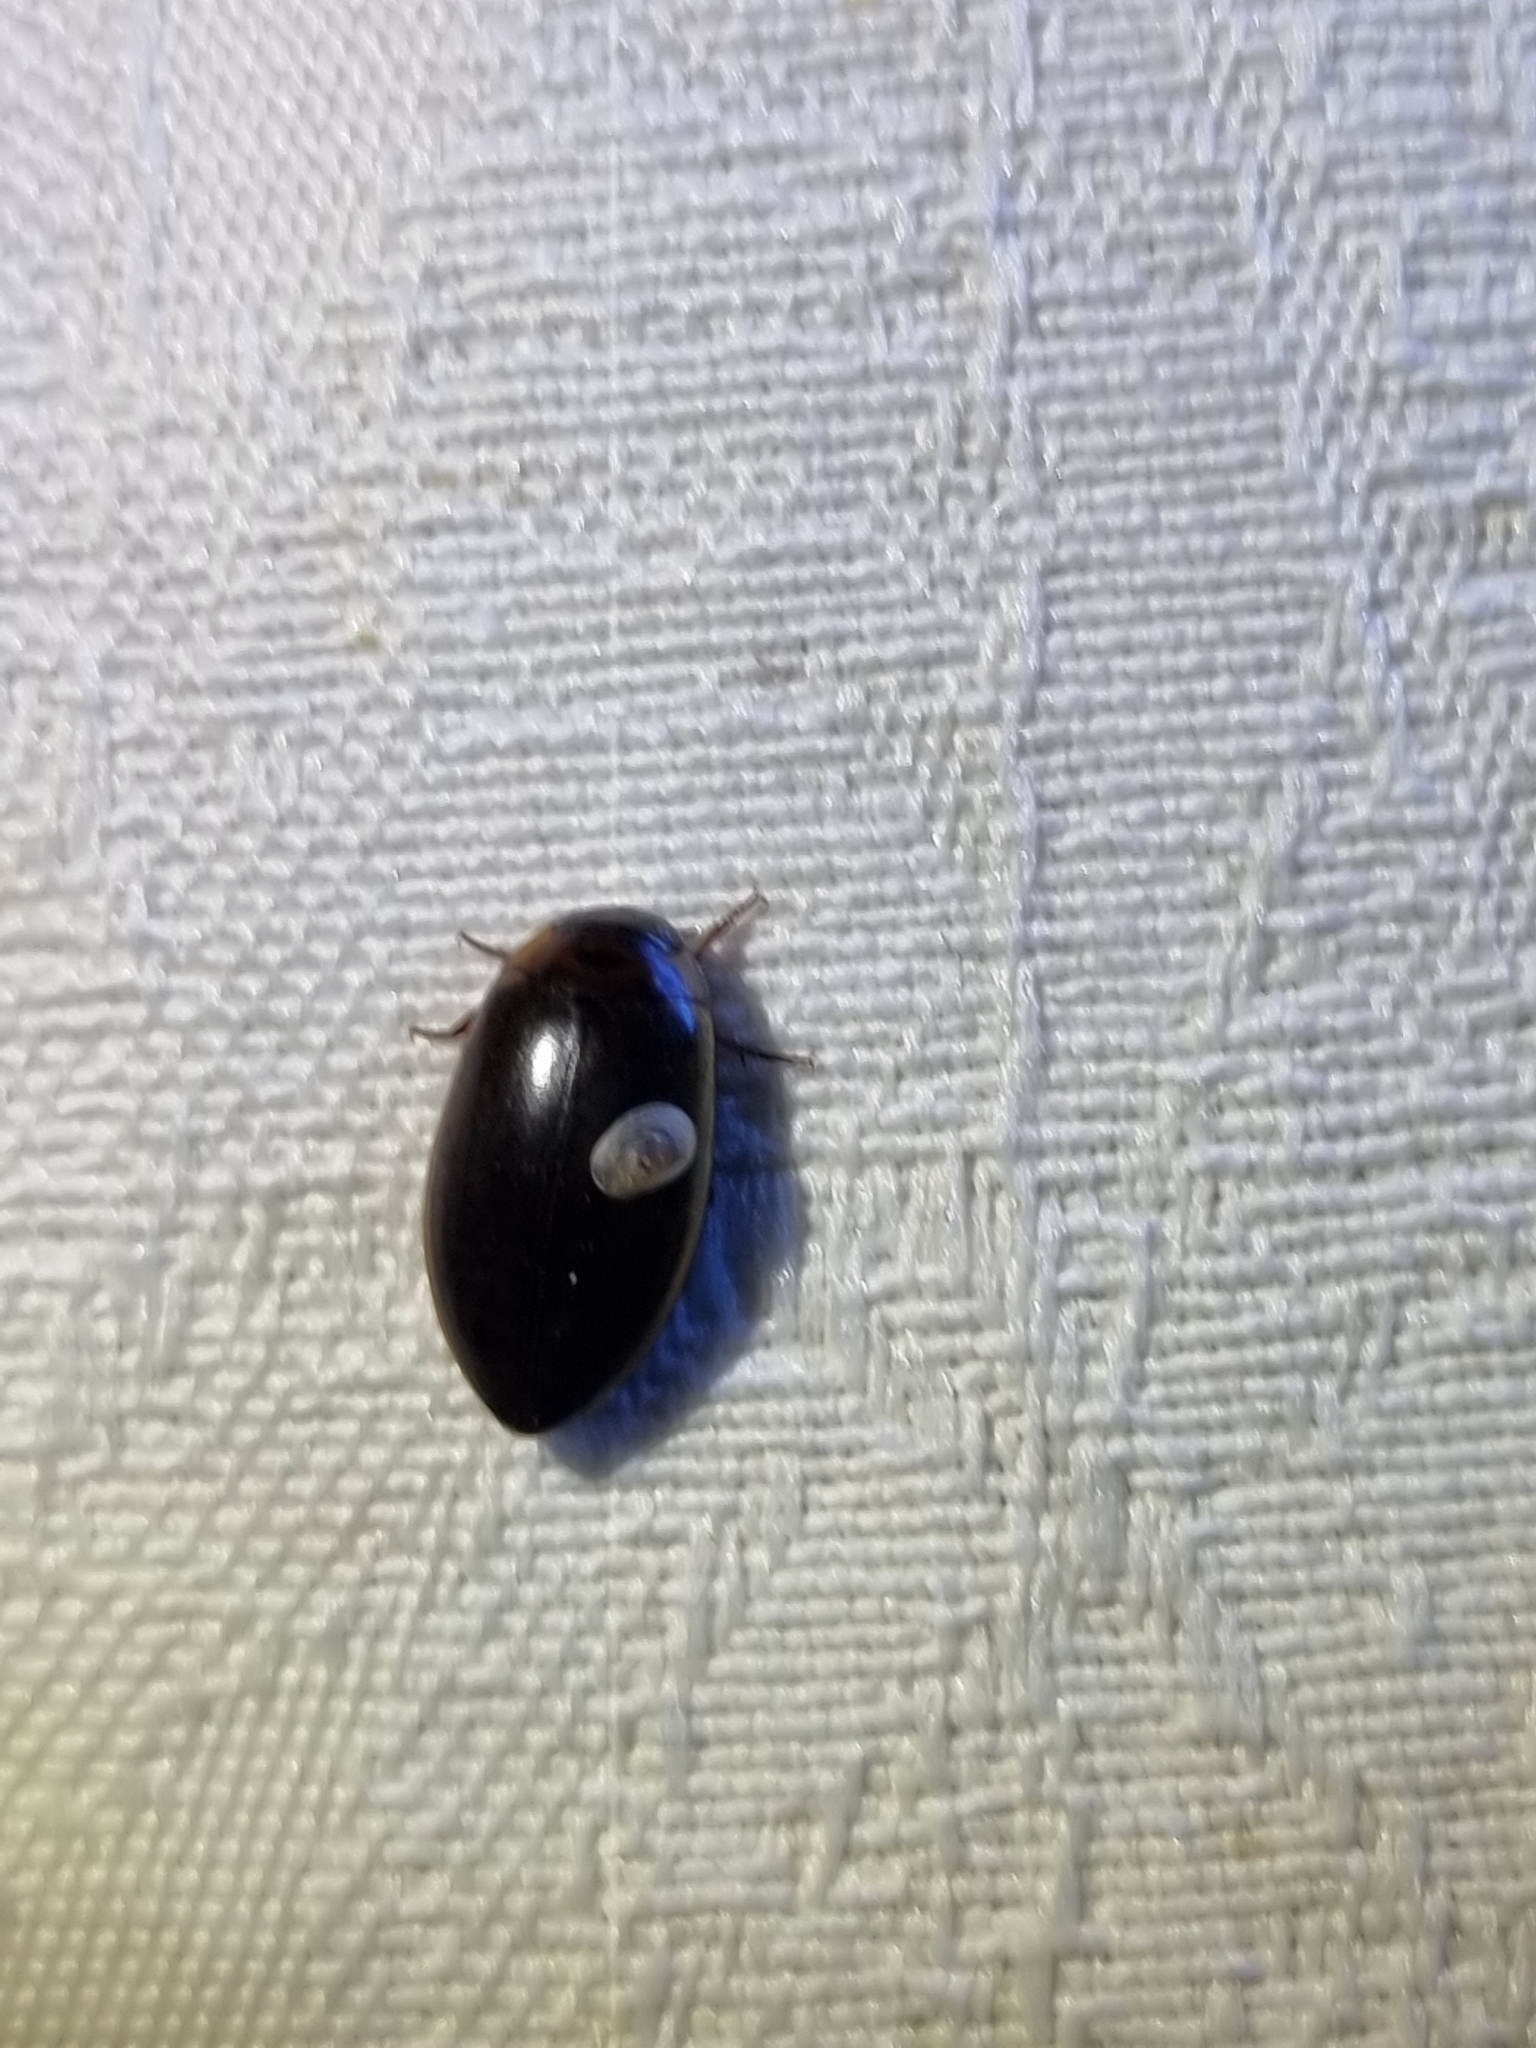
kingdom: Animalia
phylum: Arthropoda
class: Insecta
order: Coleoptera
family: Dytiscidae
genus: Rhantus
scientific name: Rhantus suturalis
